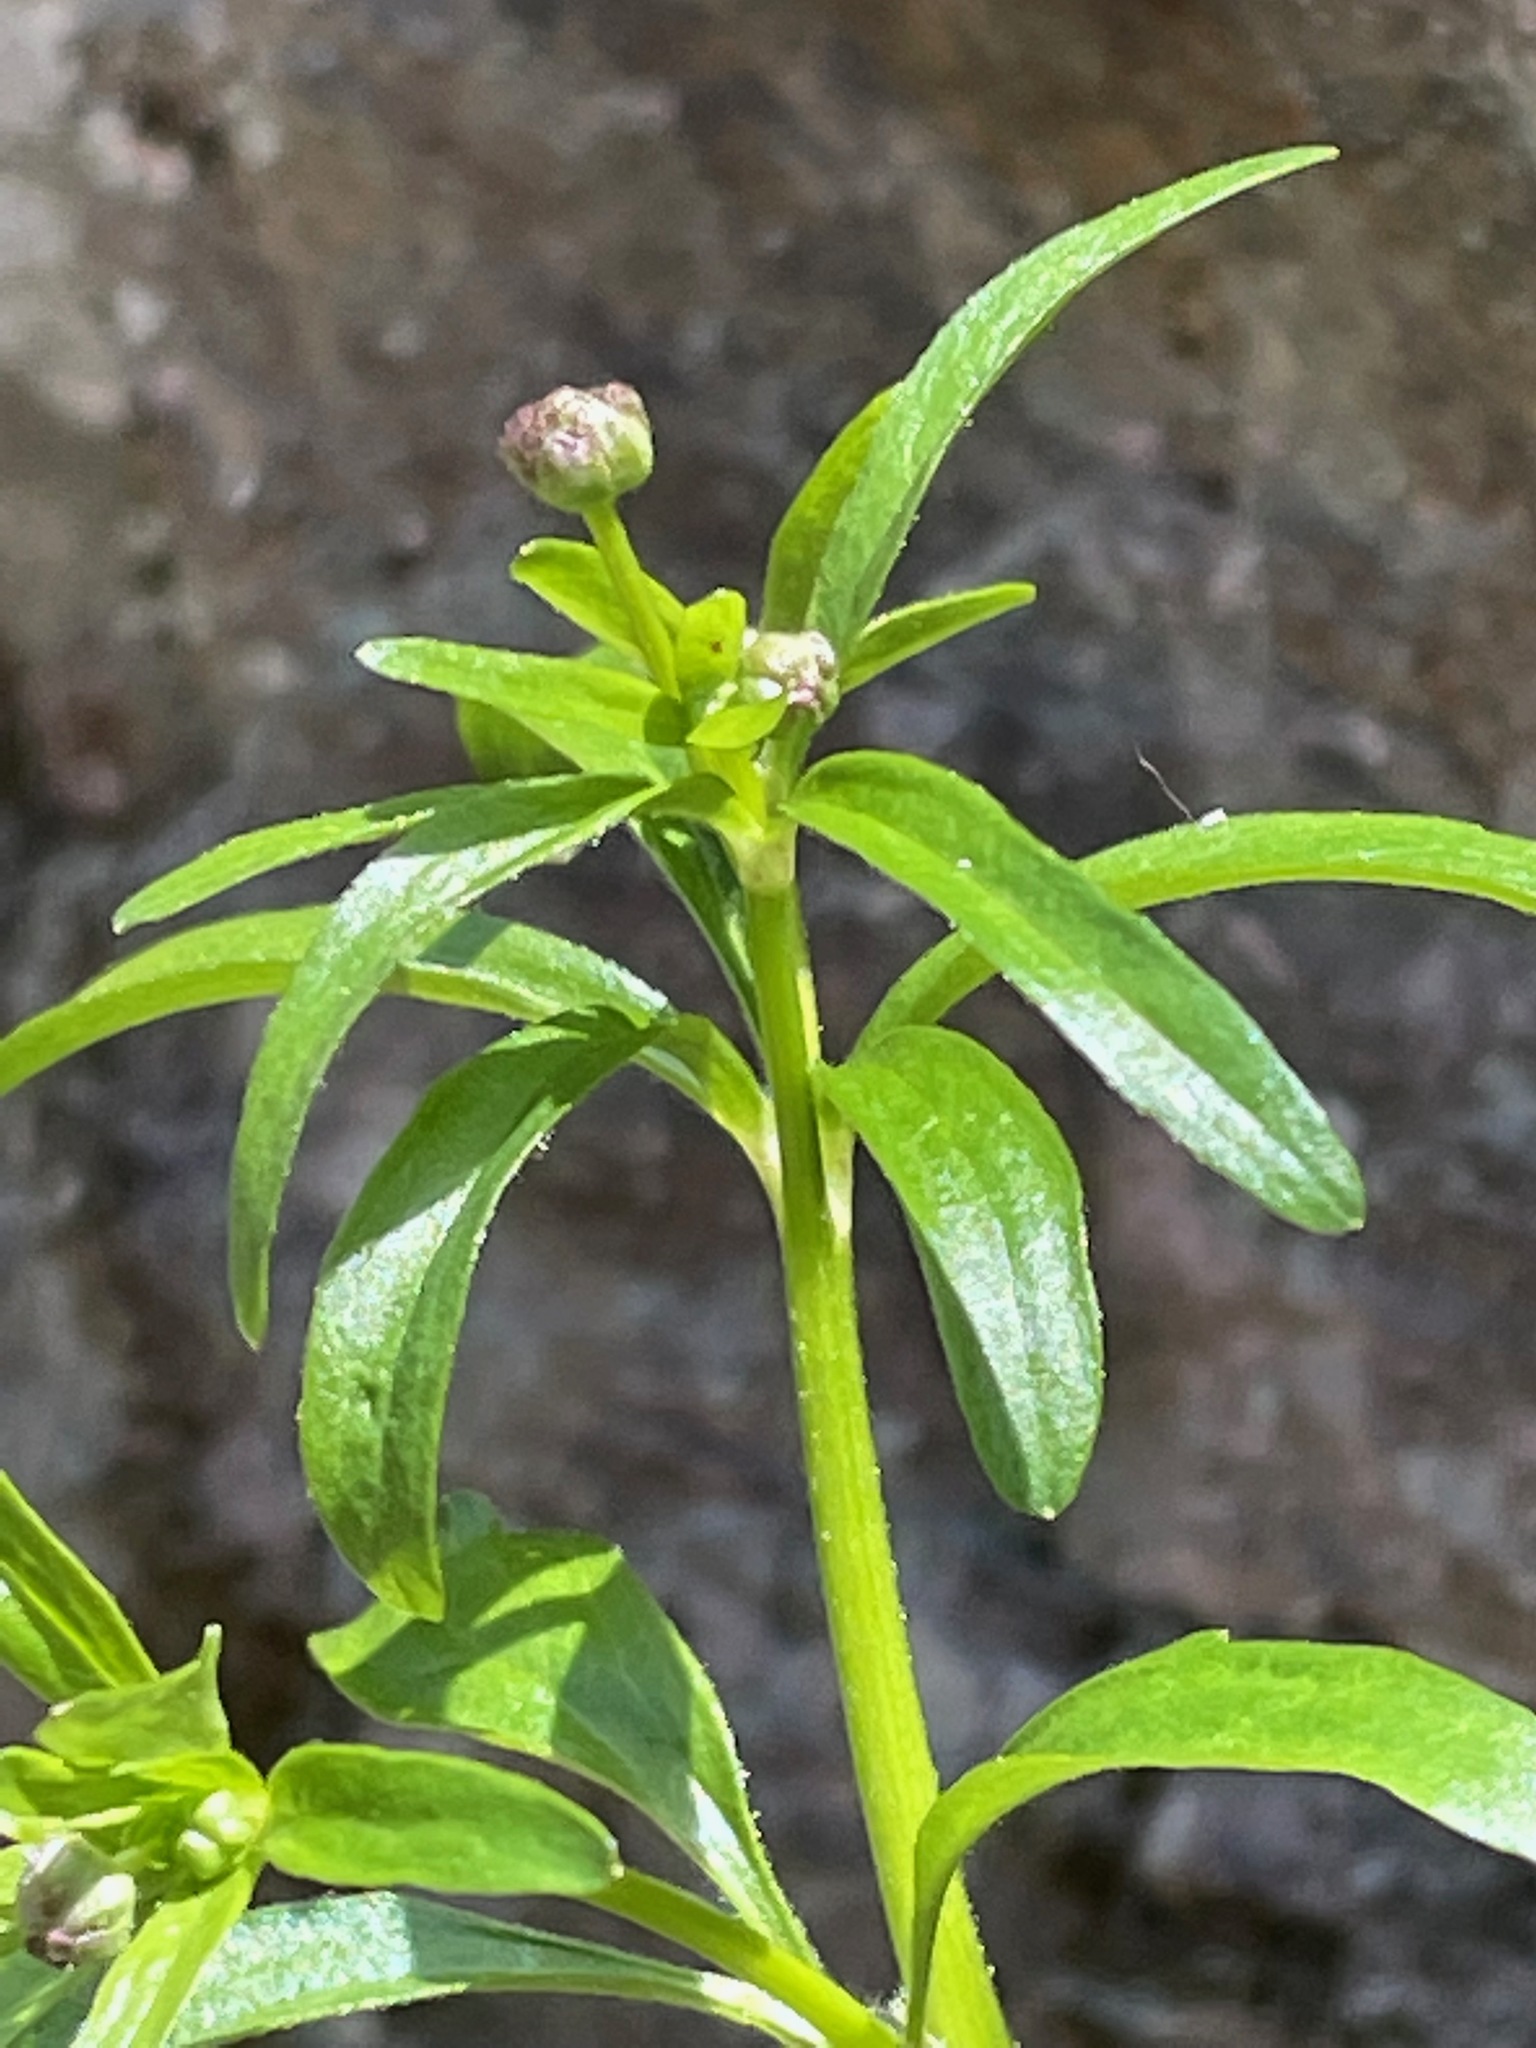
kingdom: Plantae
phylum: Tracheophyta
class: Magnoliopsida
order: Ranunculales
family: Ranunculaceae
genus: Ranunculus
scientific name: Ranunculus abortivus
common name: Early wood buttercup
